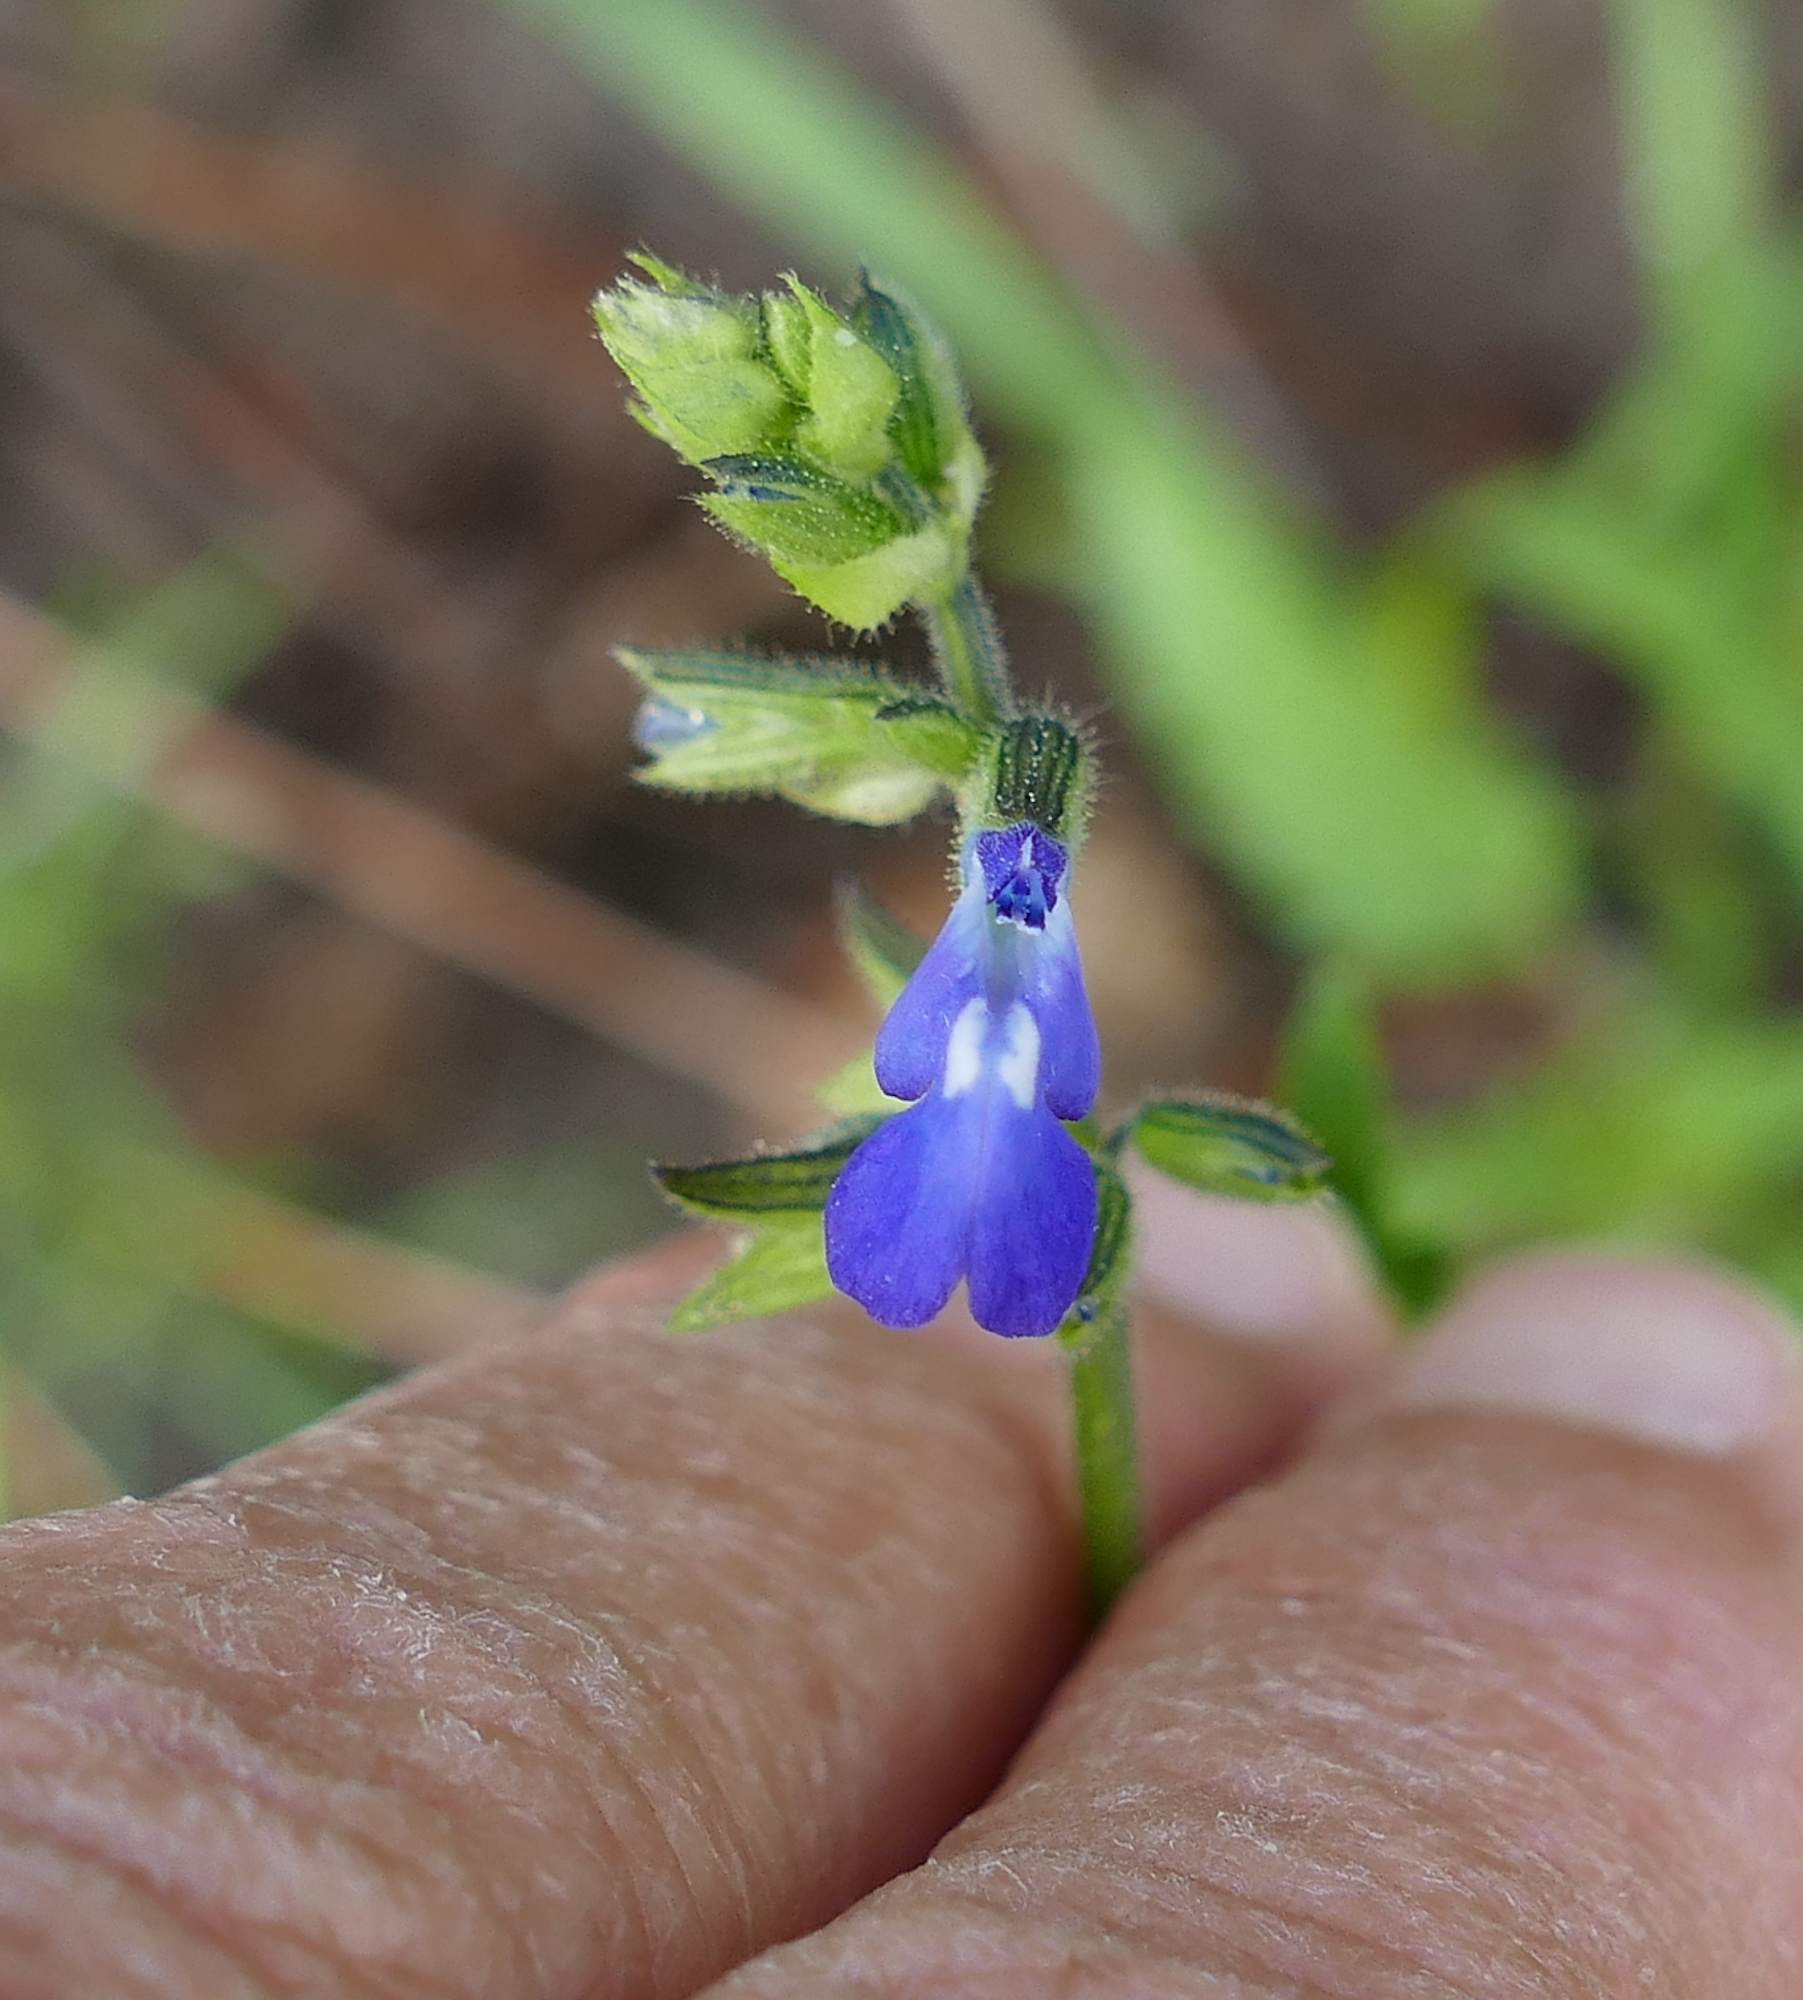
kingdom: Plantae
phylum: Tracheophyta
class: Magnoliopsida
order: Lamiales
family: Lamiaceae
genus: Salvia
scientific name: Salvia subincisa
